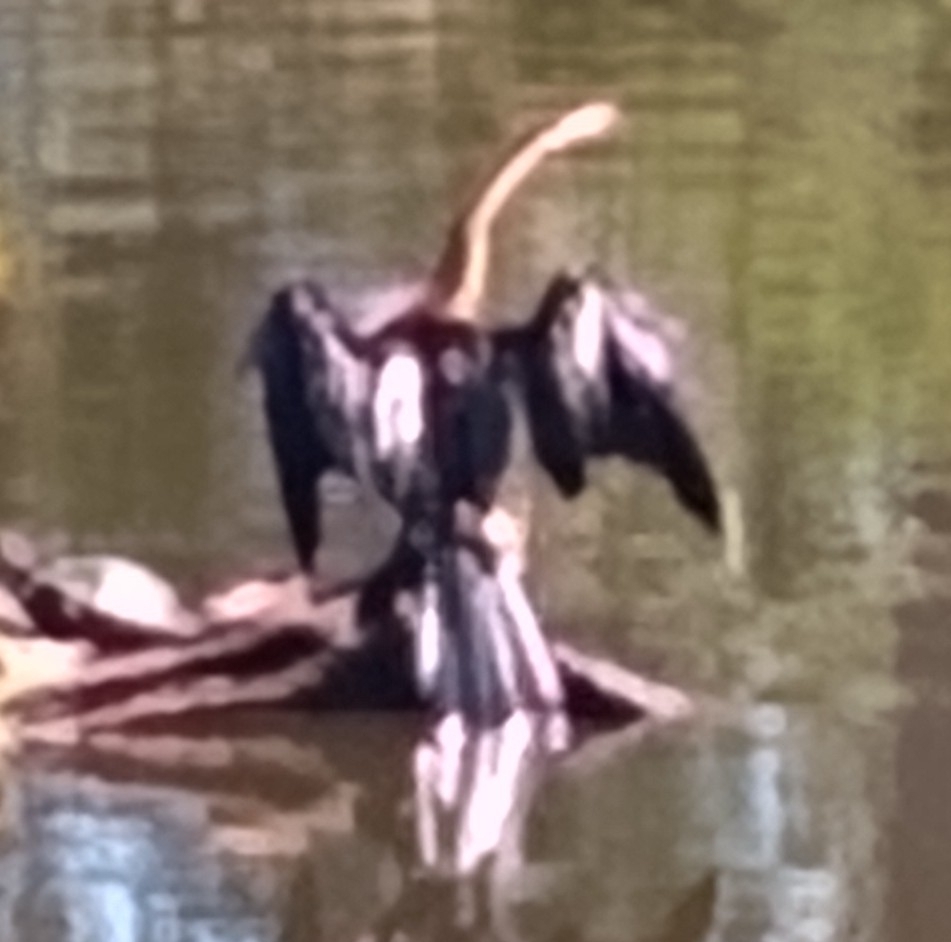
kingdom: Animalia
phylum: Chordata
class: Aves
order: Suliformes
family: Anhingidae
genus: Anhinga
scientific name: Anhinga anhinga
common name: Anhinga
